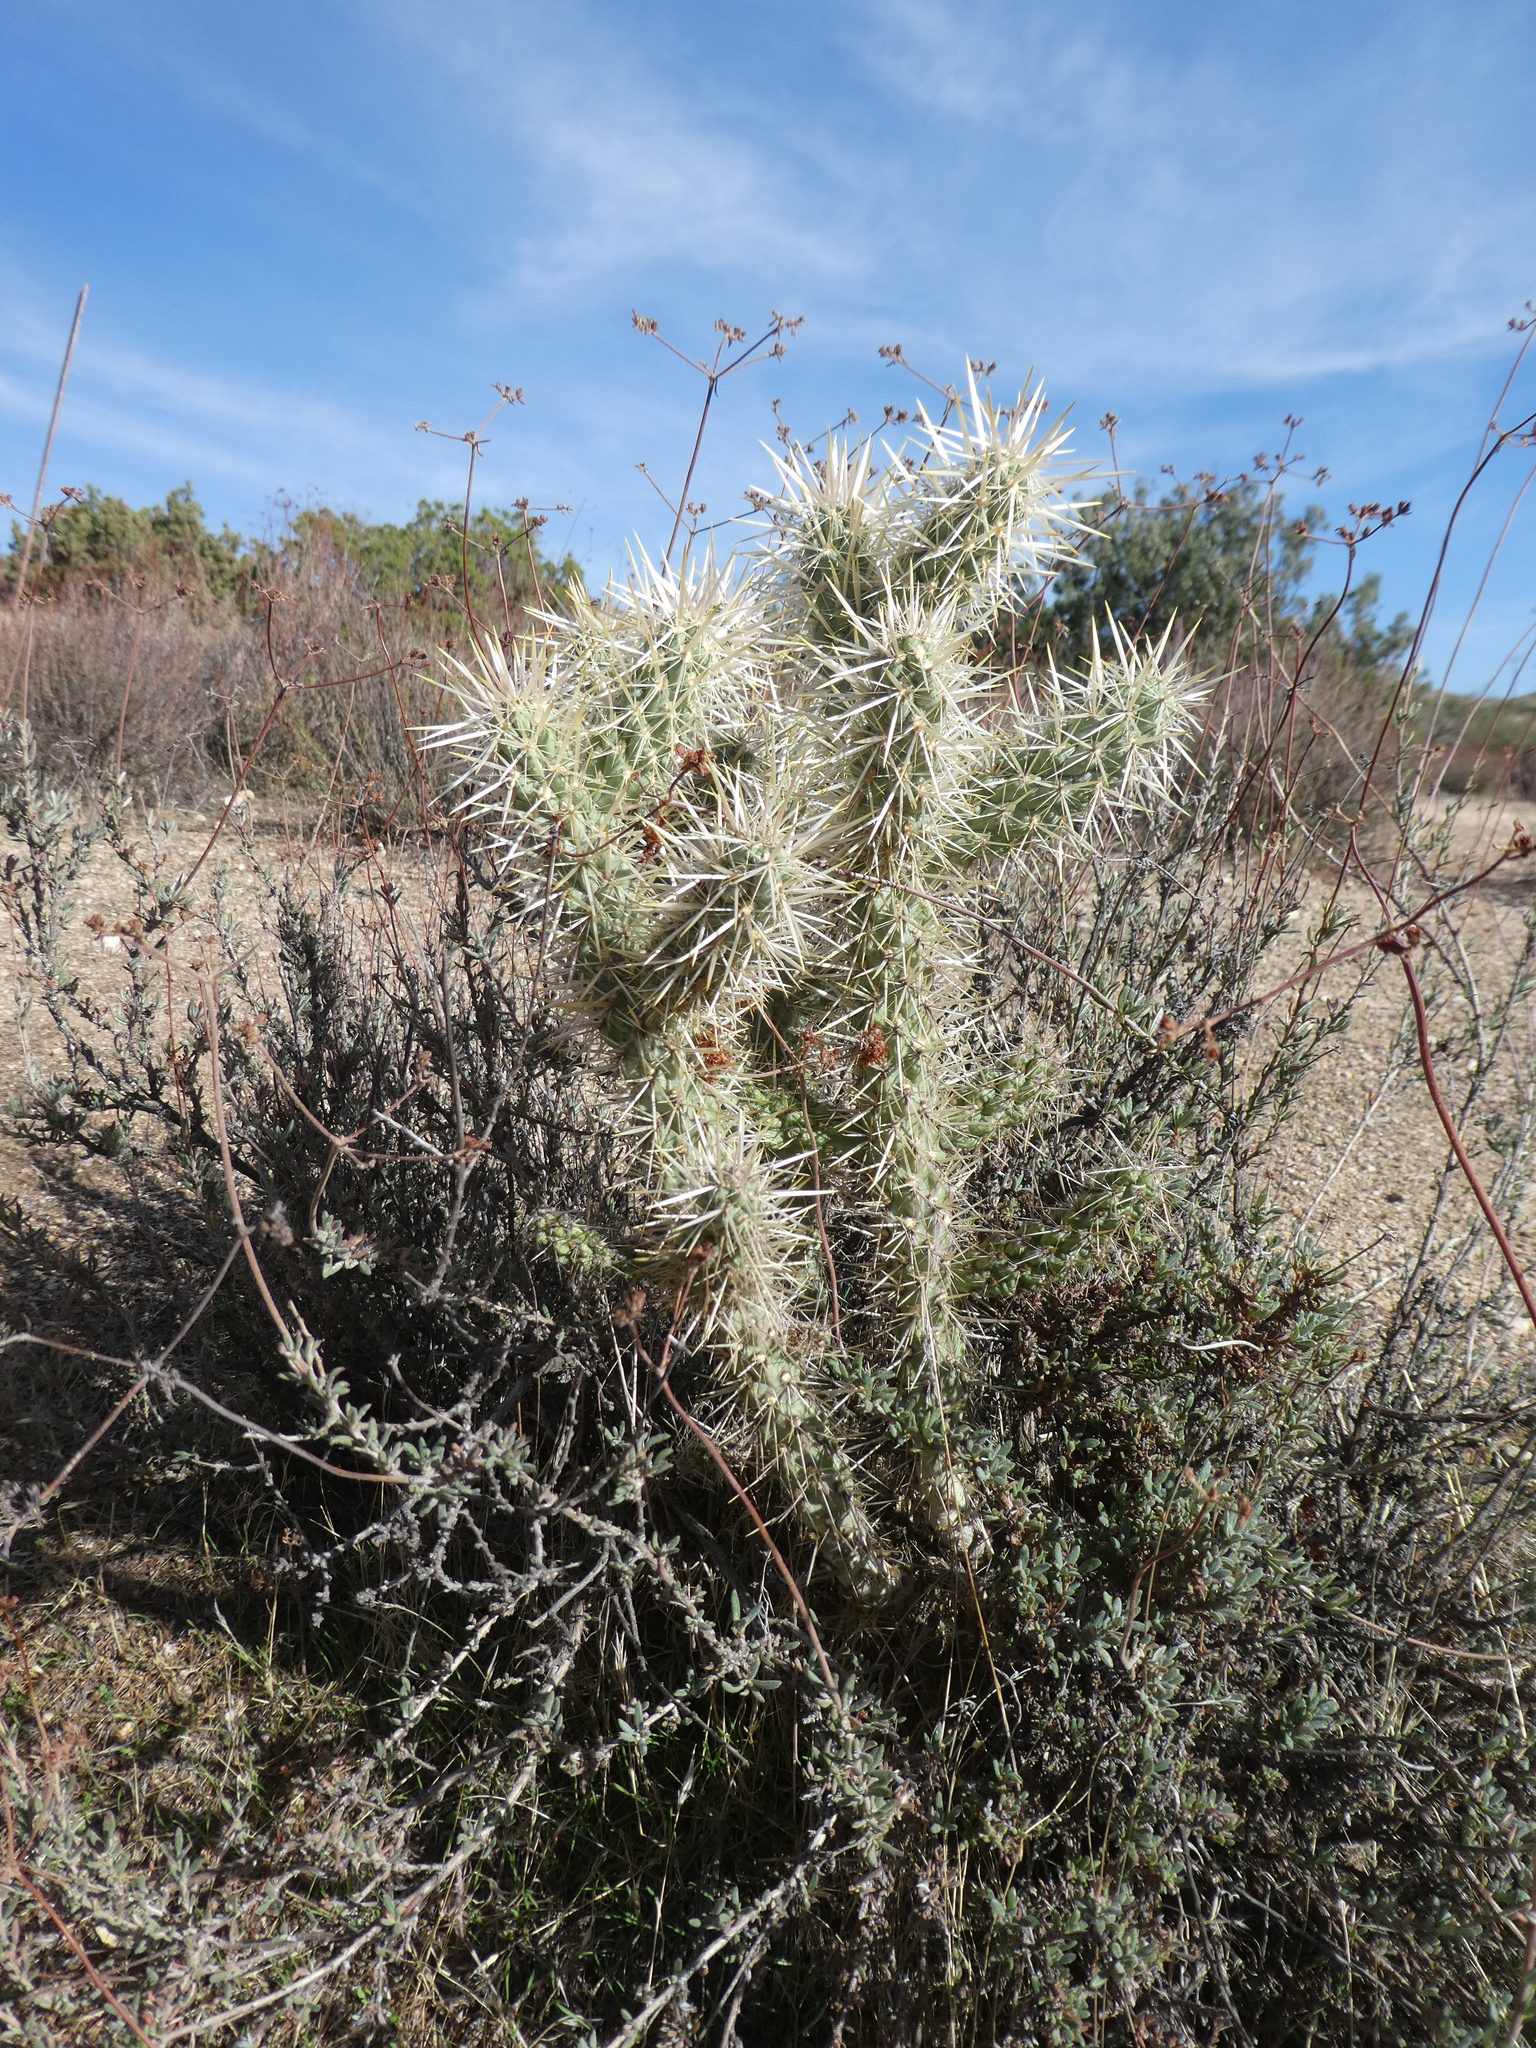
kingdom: Plantae
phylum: Tracheophyta
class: Magnoliopsida
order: Caryophyllales
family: Cactaceae
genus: Cylindropuntia
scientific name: Cylindropuntia echinocarpa
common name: Ground cholla
